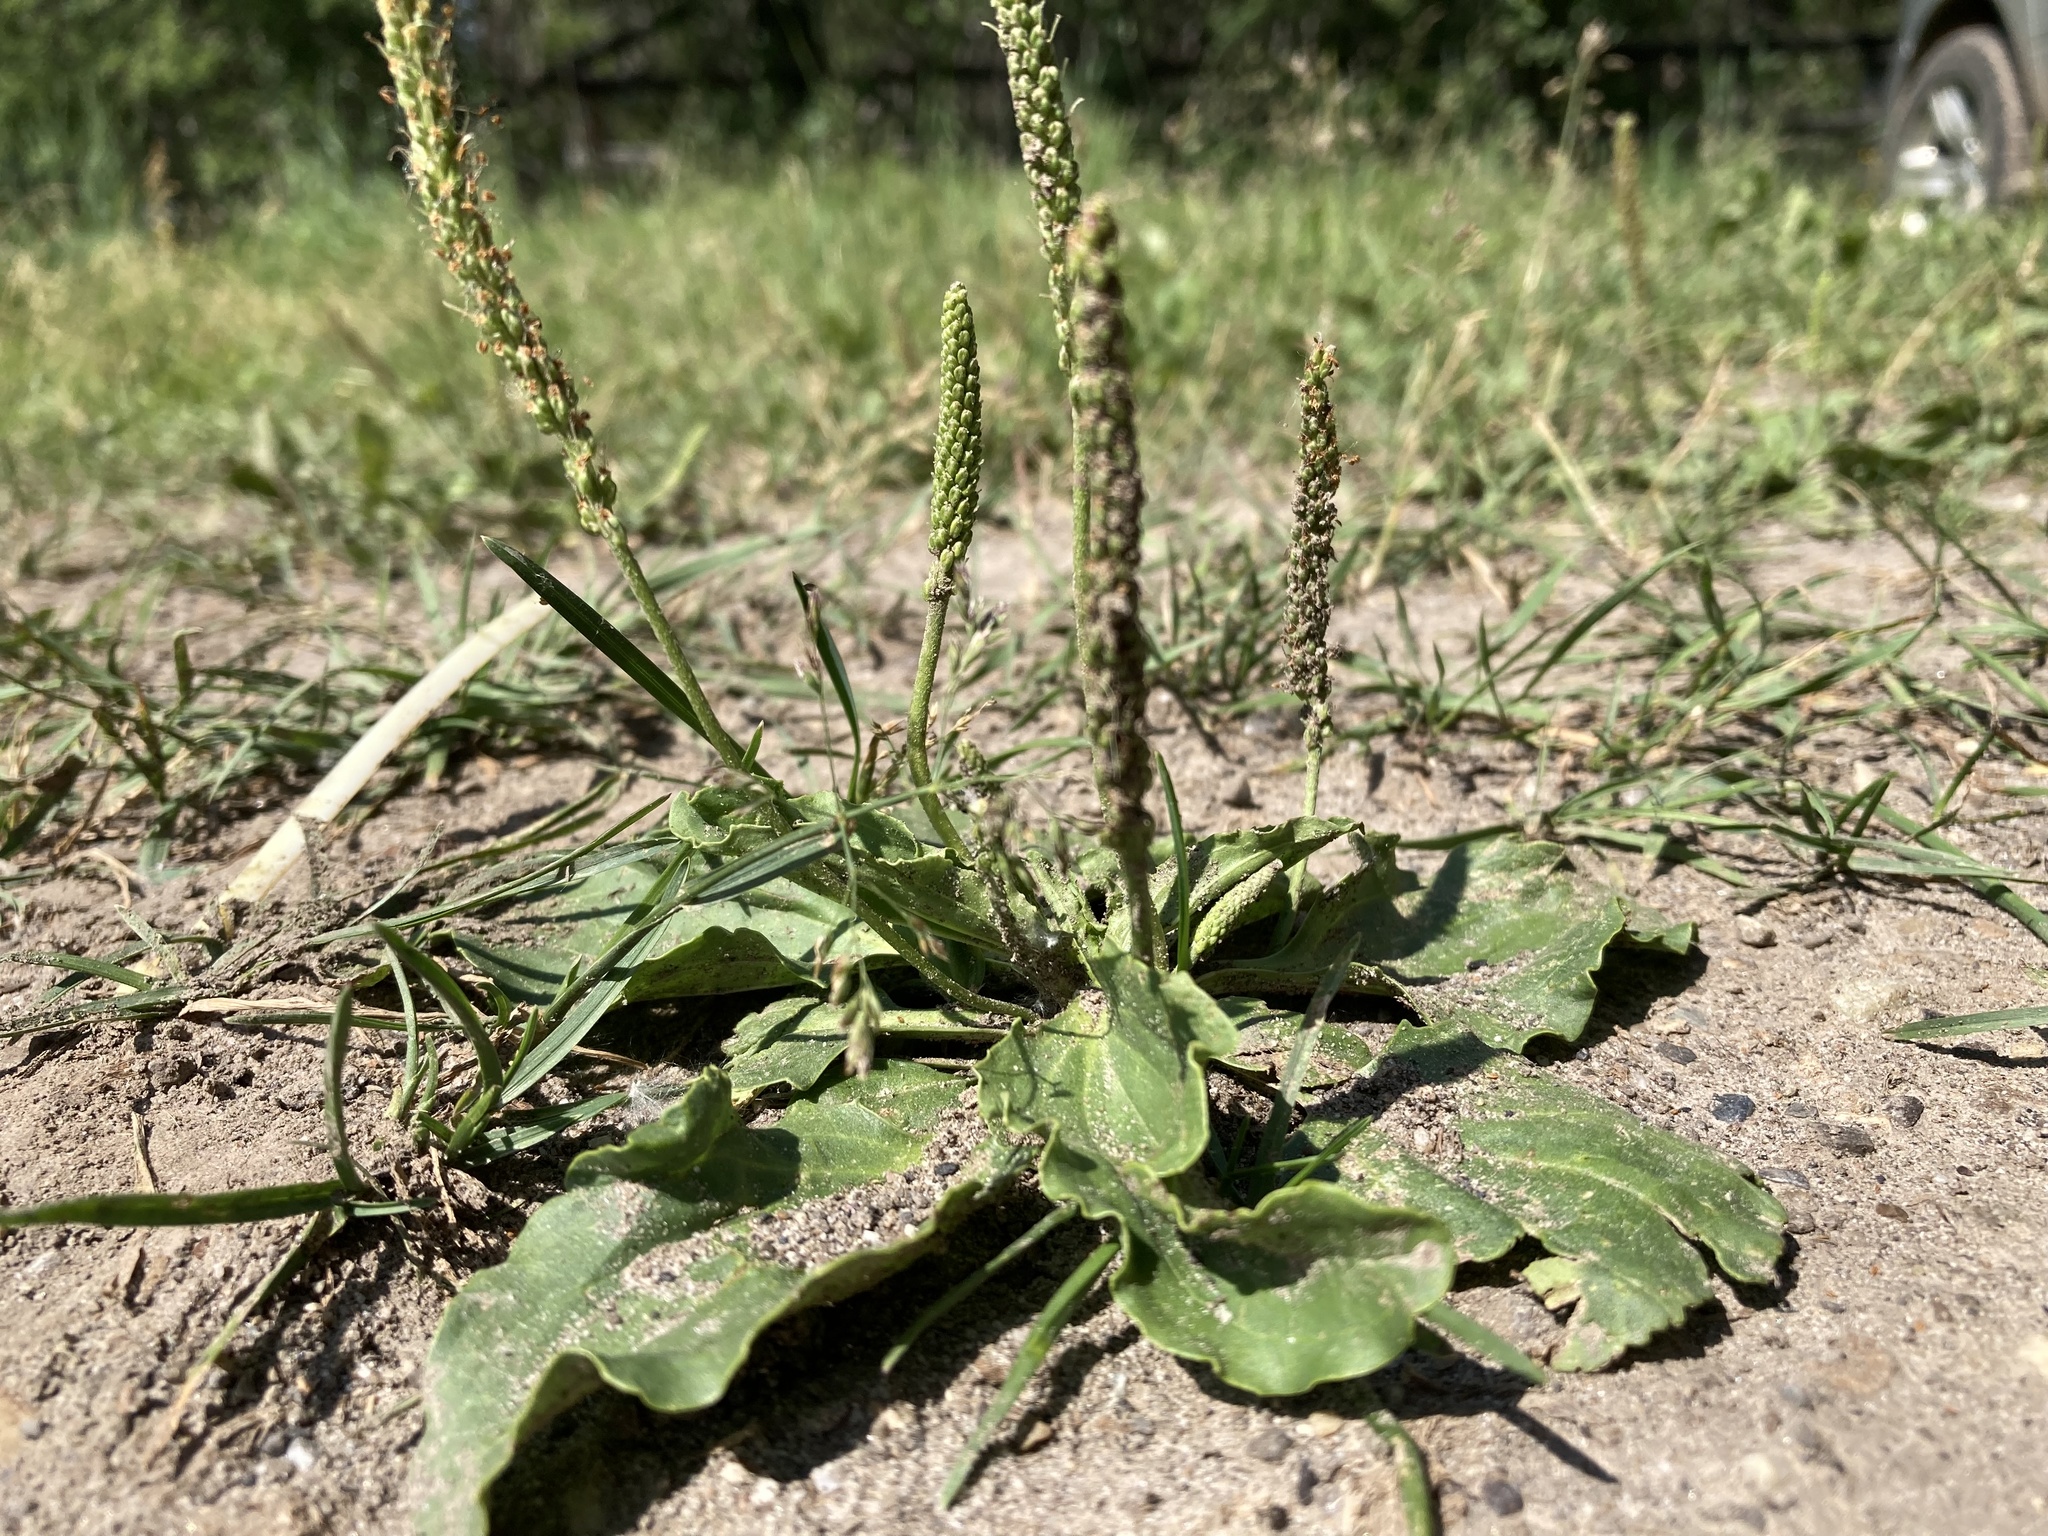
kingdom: Plantae
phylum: Tracheophyta
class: Magnoliopsida
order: Lamiales
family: Plantaginaceae
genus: Plantago
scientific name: Plantago major
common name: Common plantain
